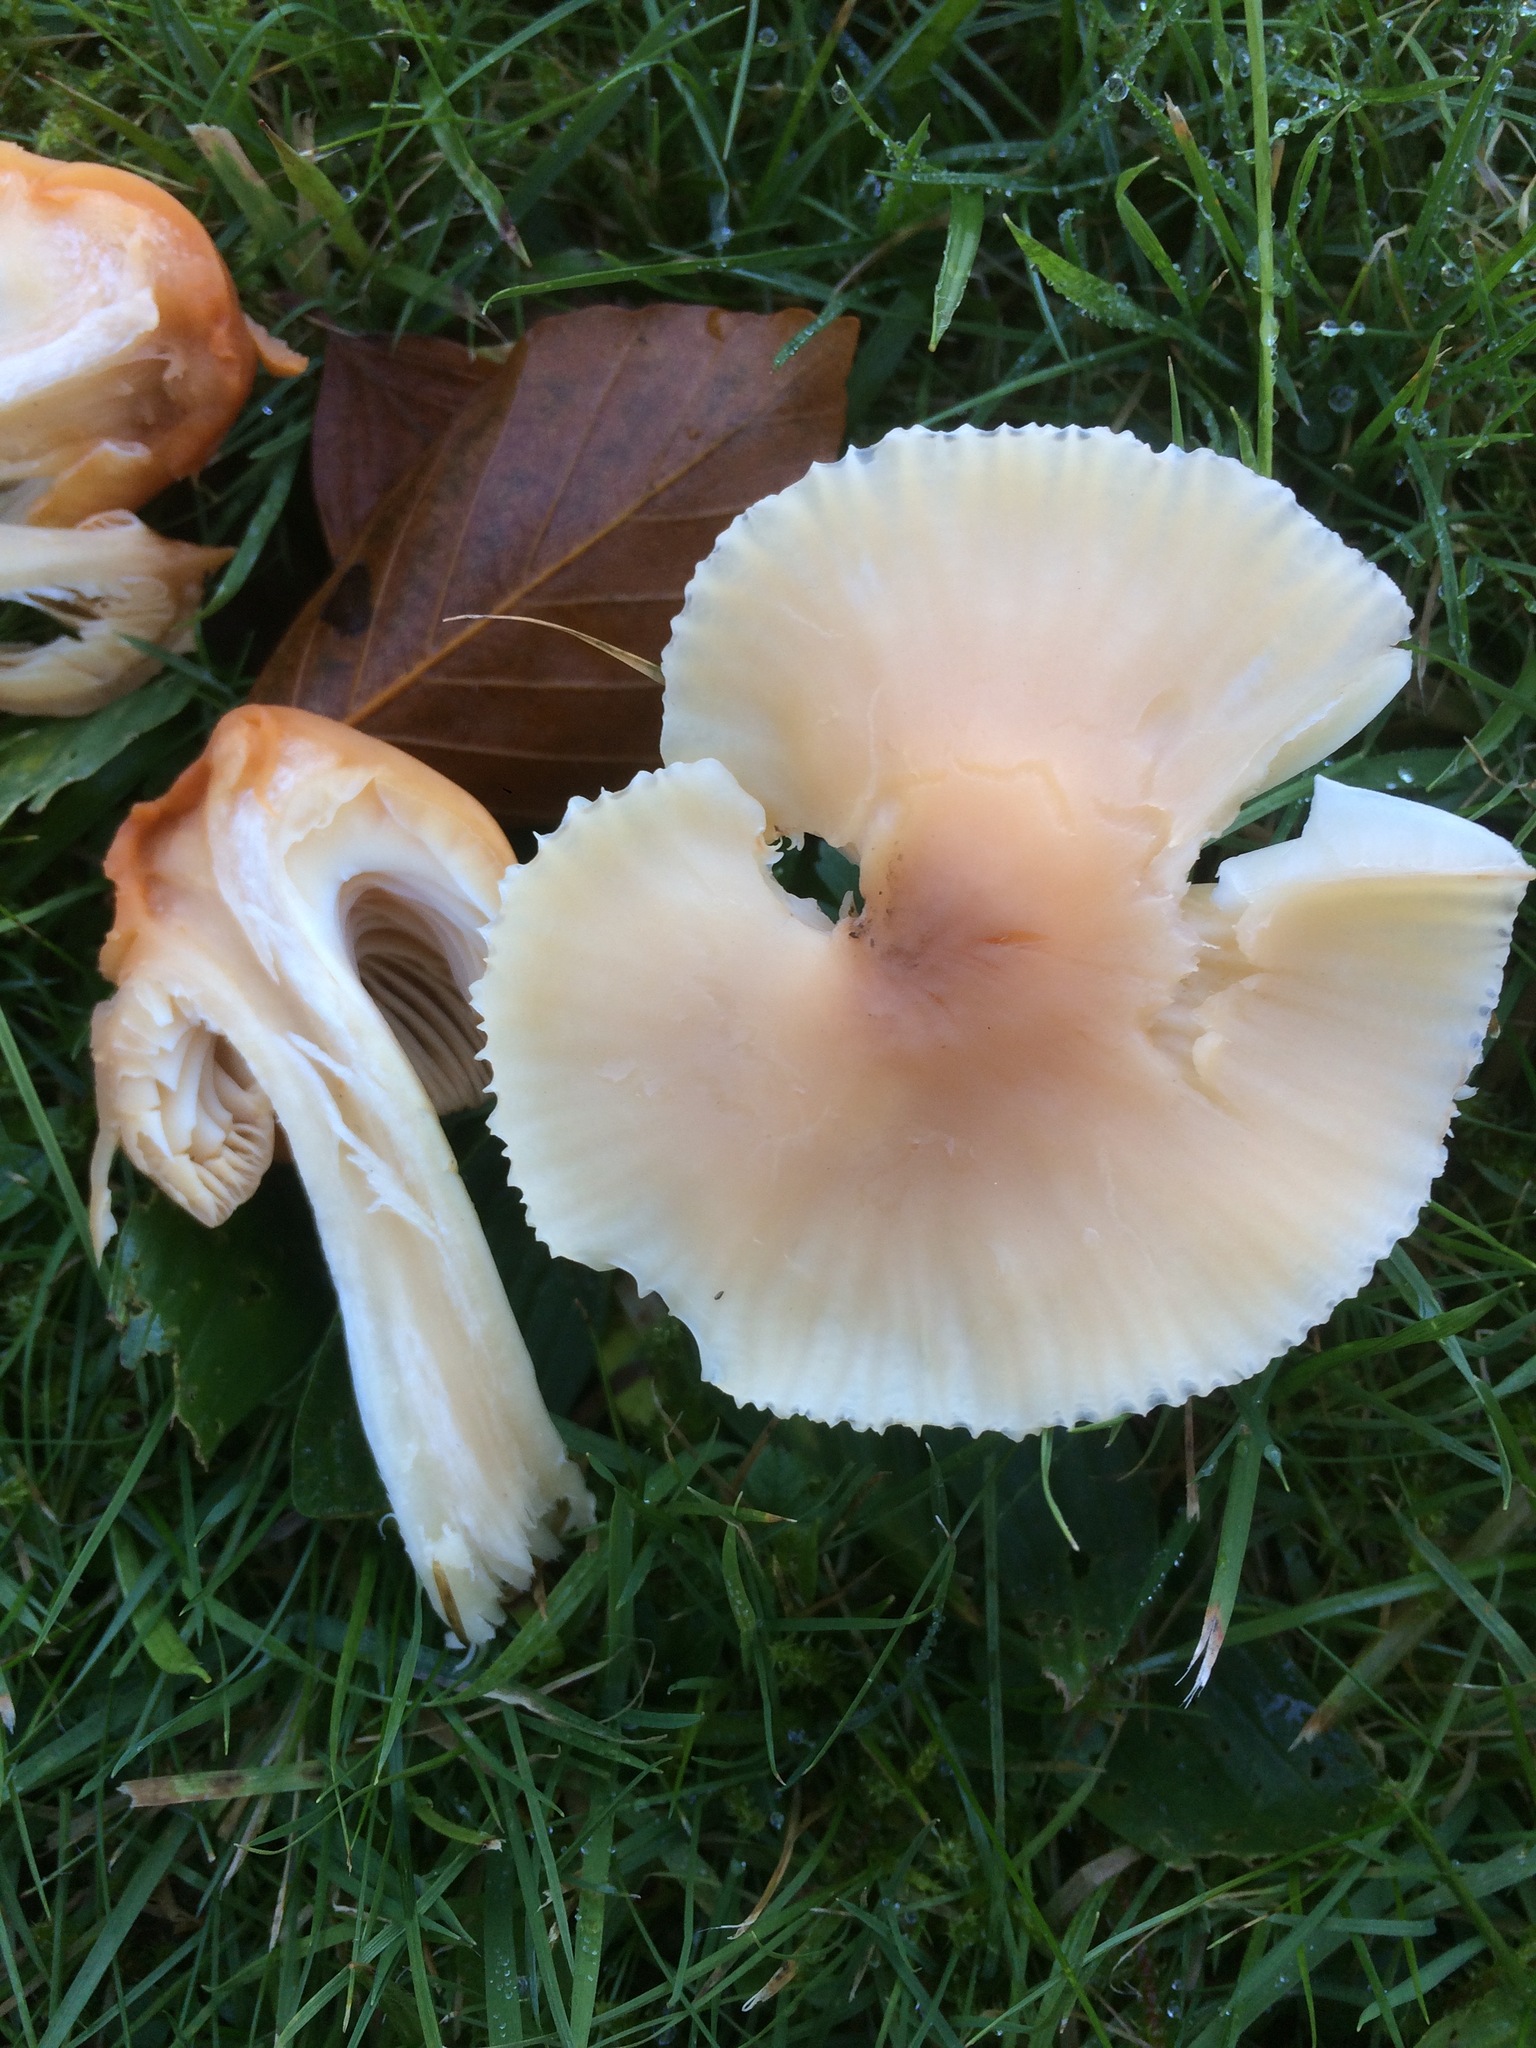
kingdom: Fungi
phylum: Basidiomycota
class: Agaricomycetes
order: Agaricales
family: Hygrophoraceae
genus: Cuphophyllus
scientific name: Cuphophyllus pratensis
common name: Meadow waxcap
